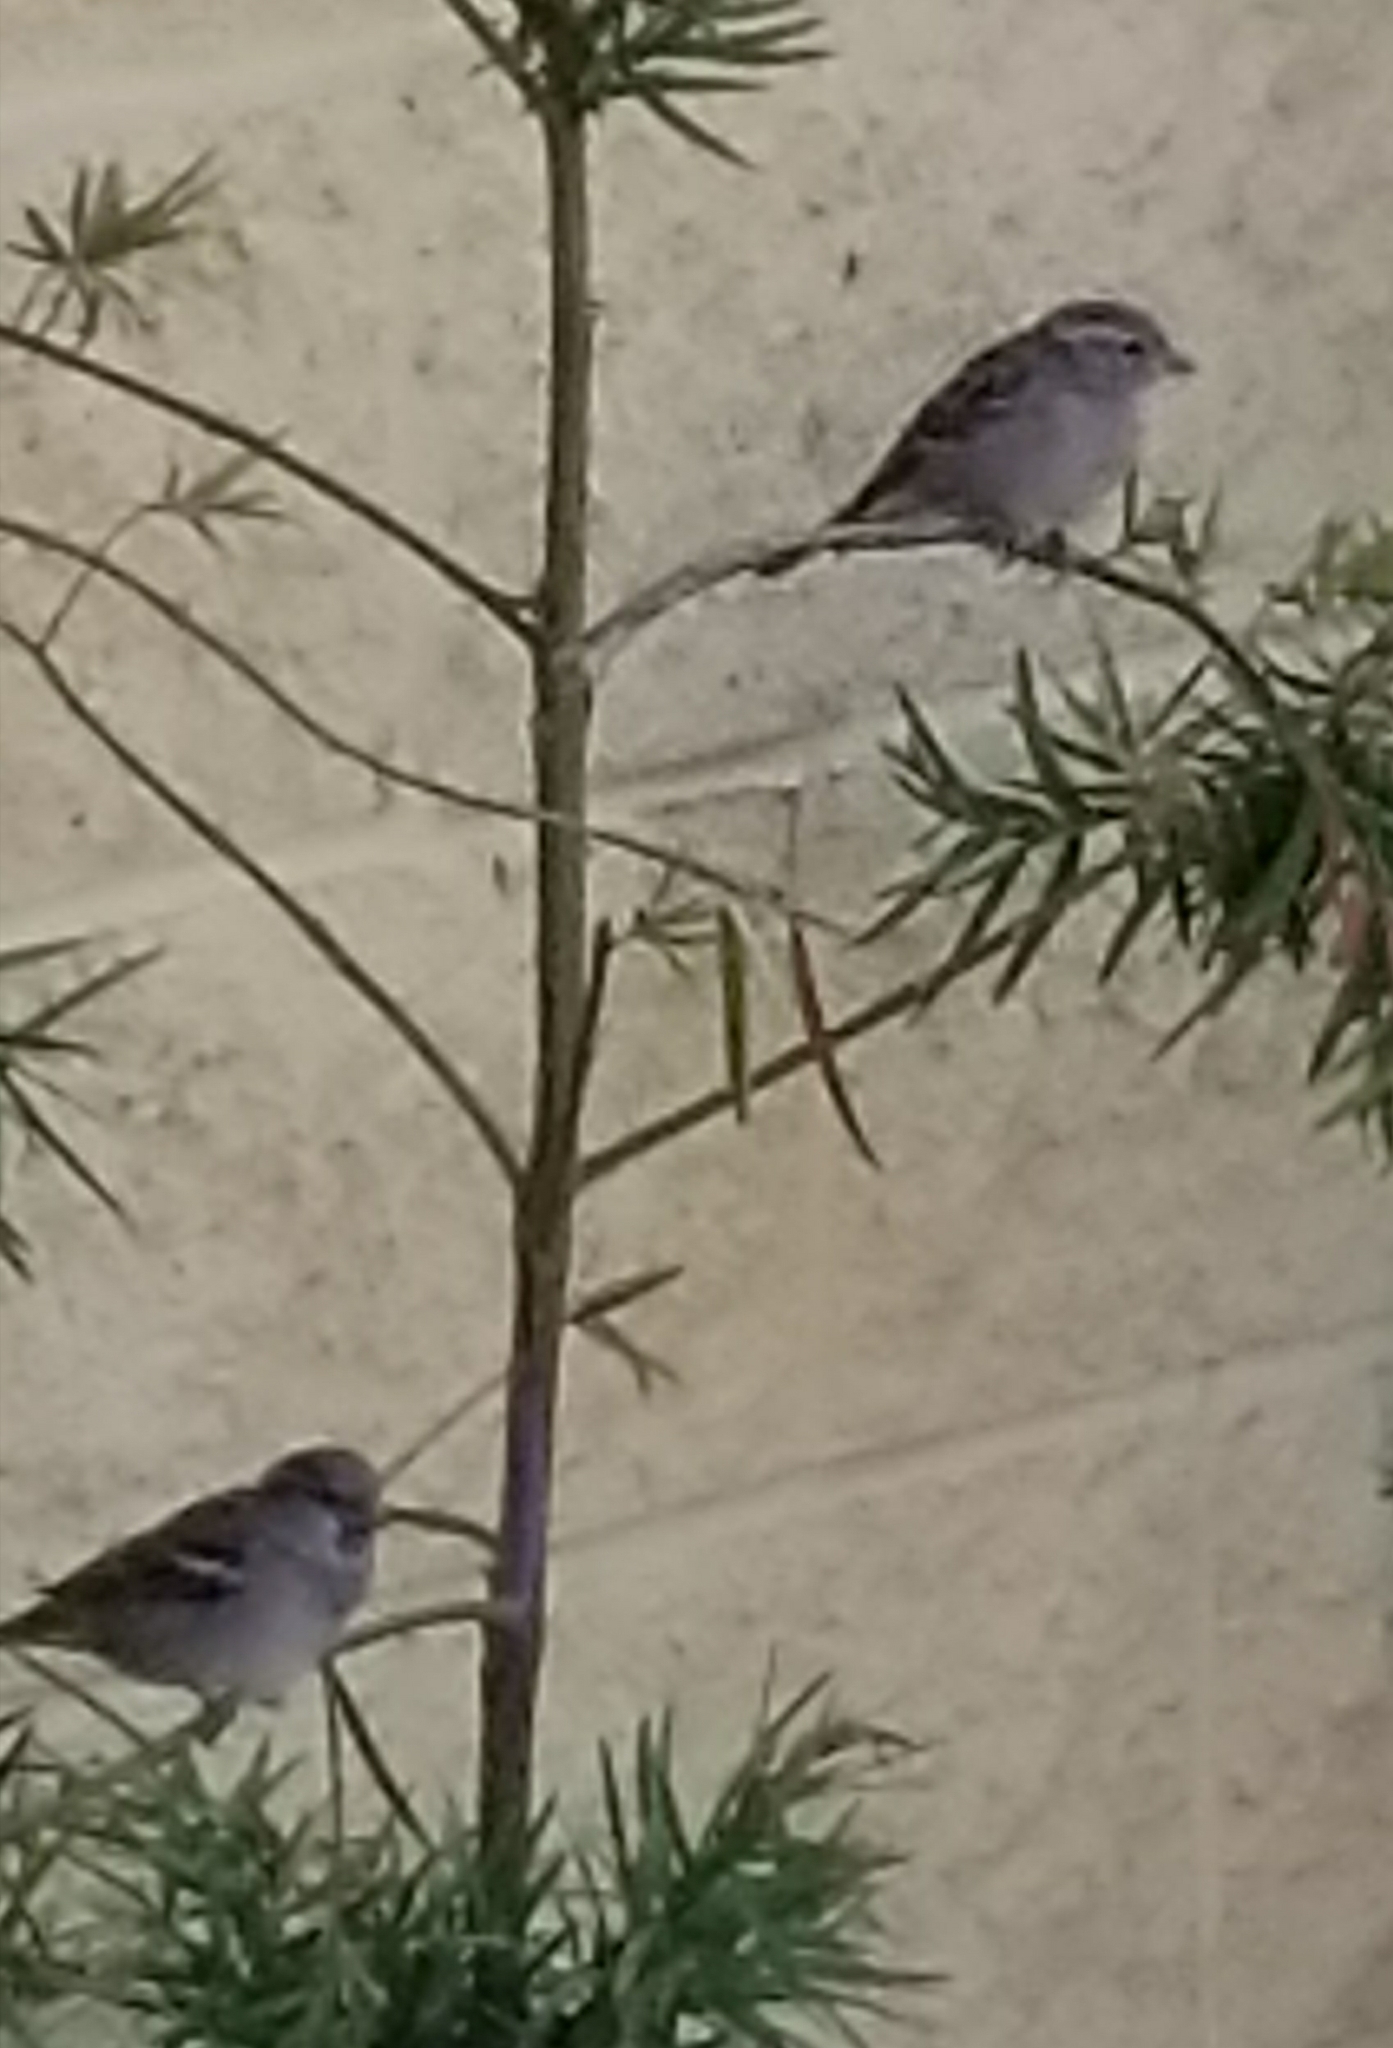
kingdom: Animalia
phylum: Chordata
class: Aves
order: Passeriformes
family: Passeridae
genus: Passer
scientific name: Passer domesticus
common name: House sparrow
